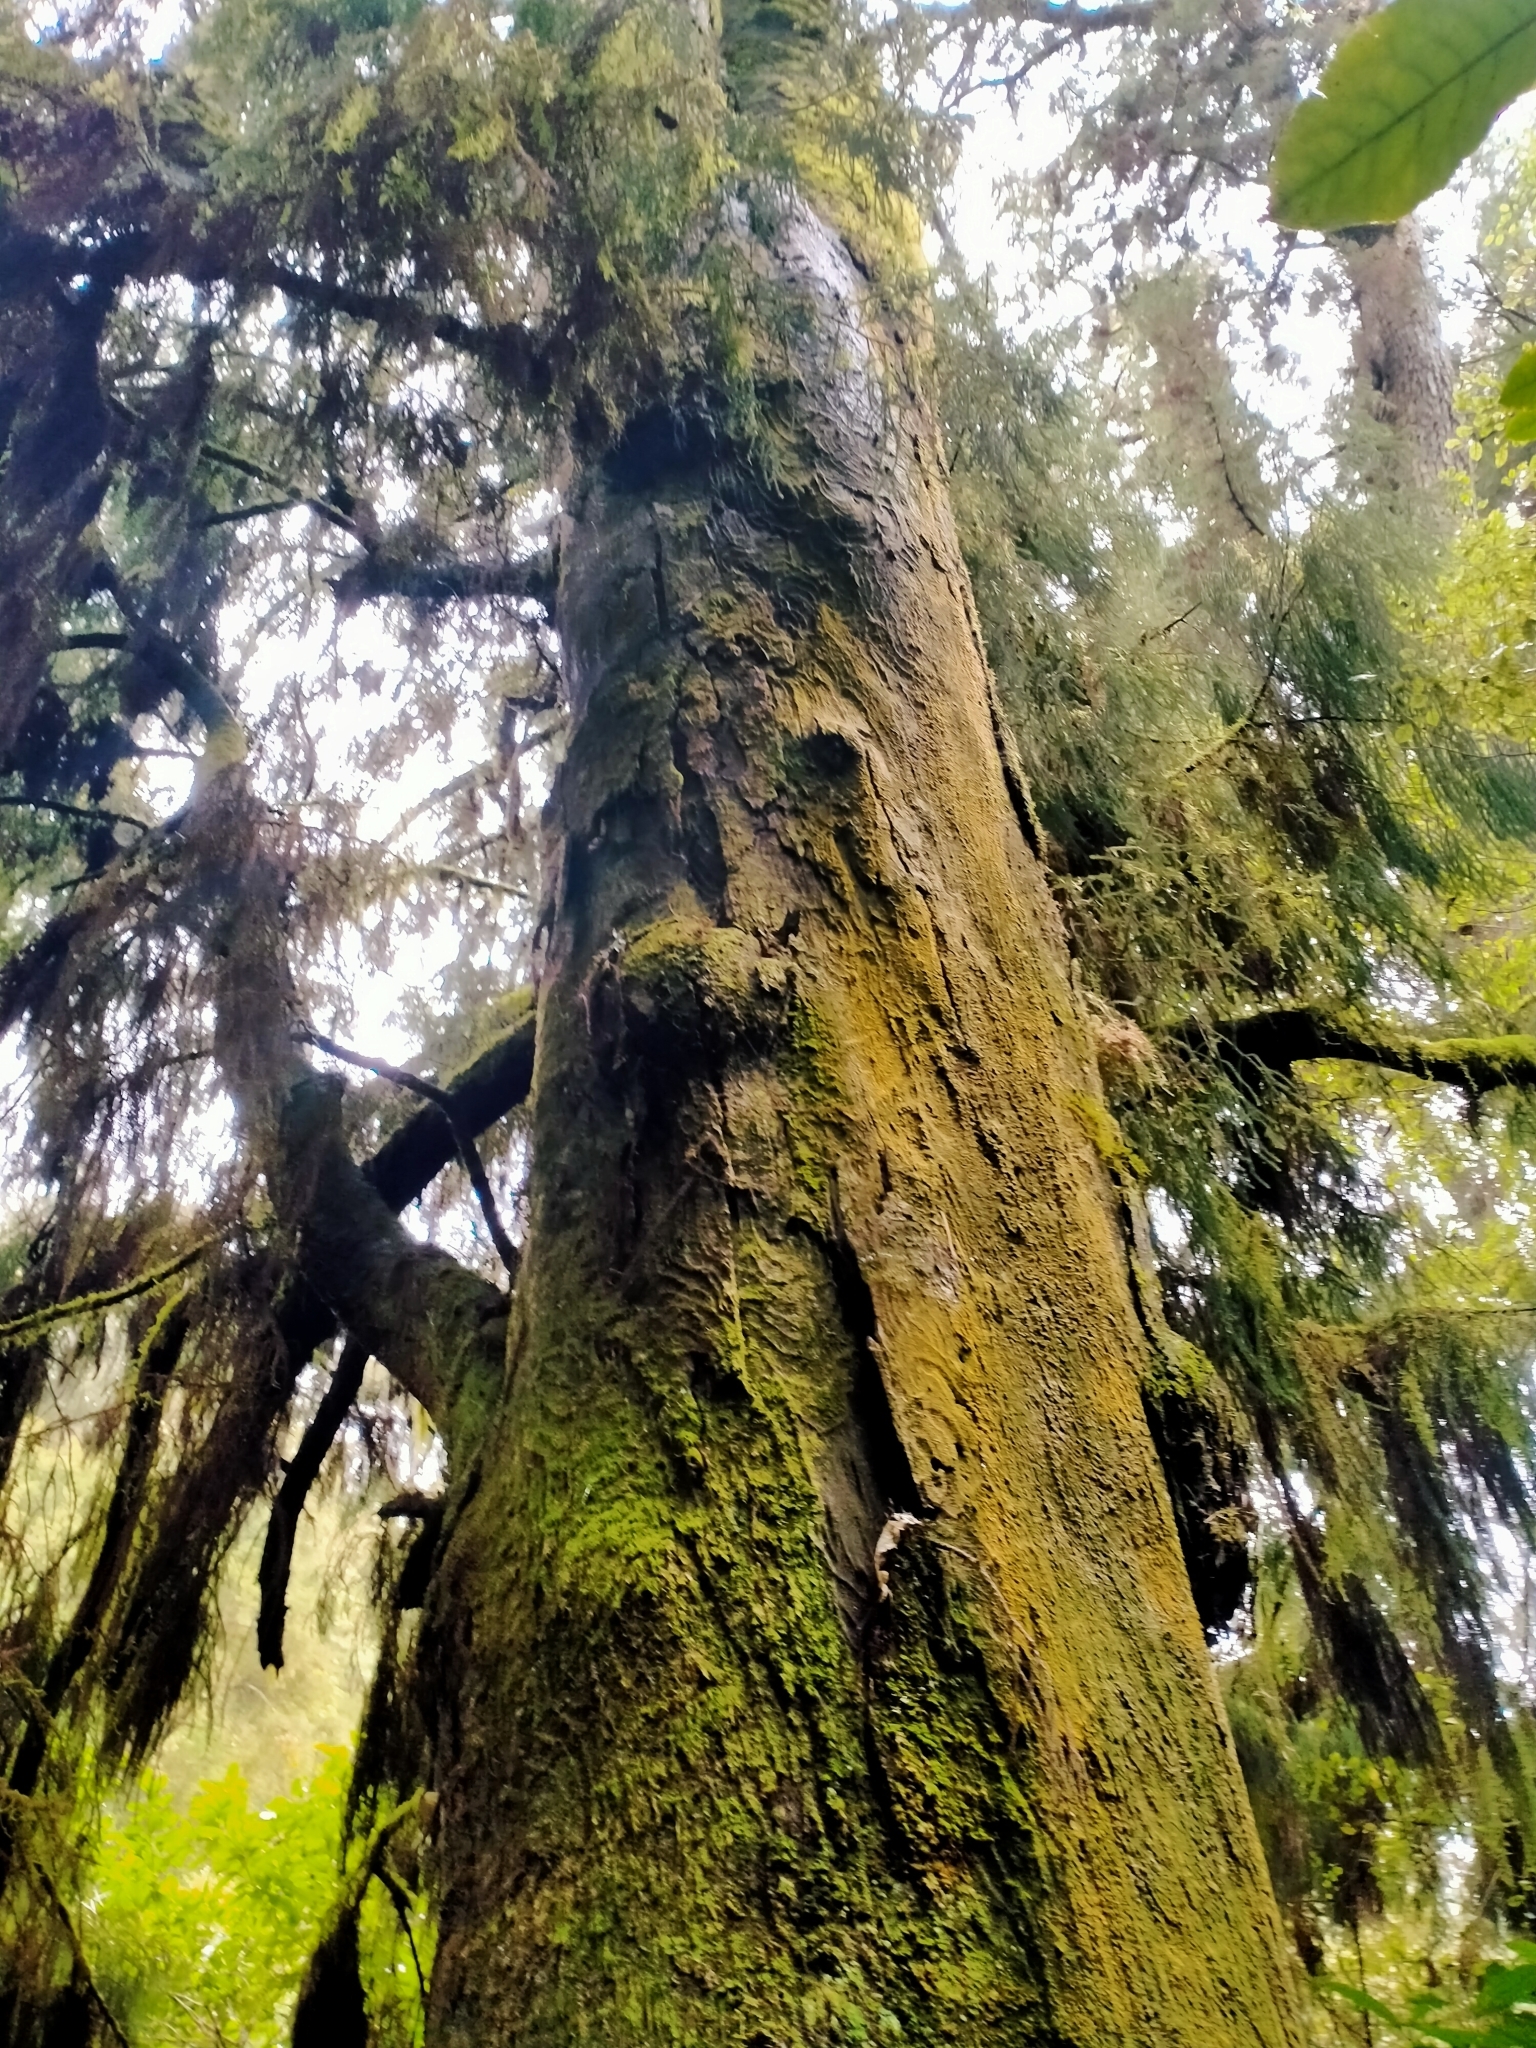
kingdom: Plantae
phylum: Tracheophyta
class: Pinopsida
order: Pinales
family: Podocarpaceae
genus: Dacrydium
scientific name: Dacrydium cupressinum
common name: Red pine
